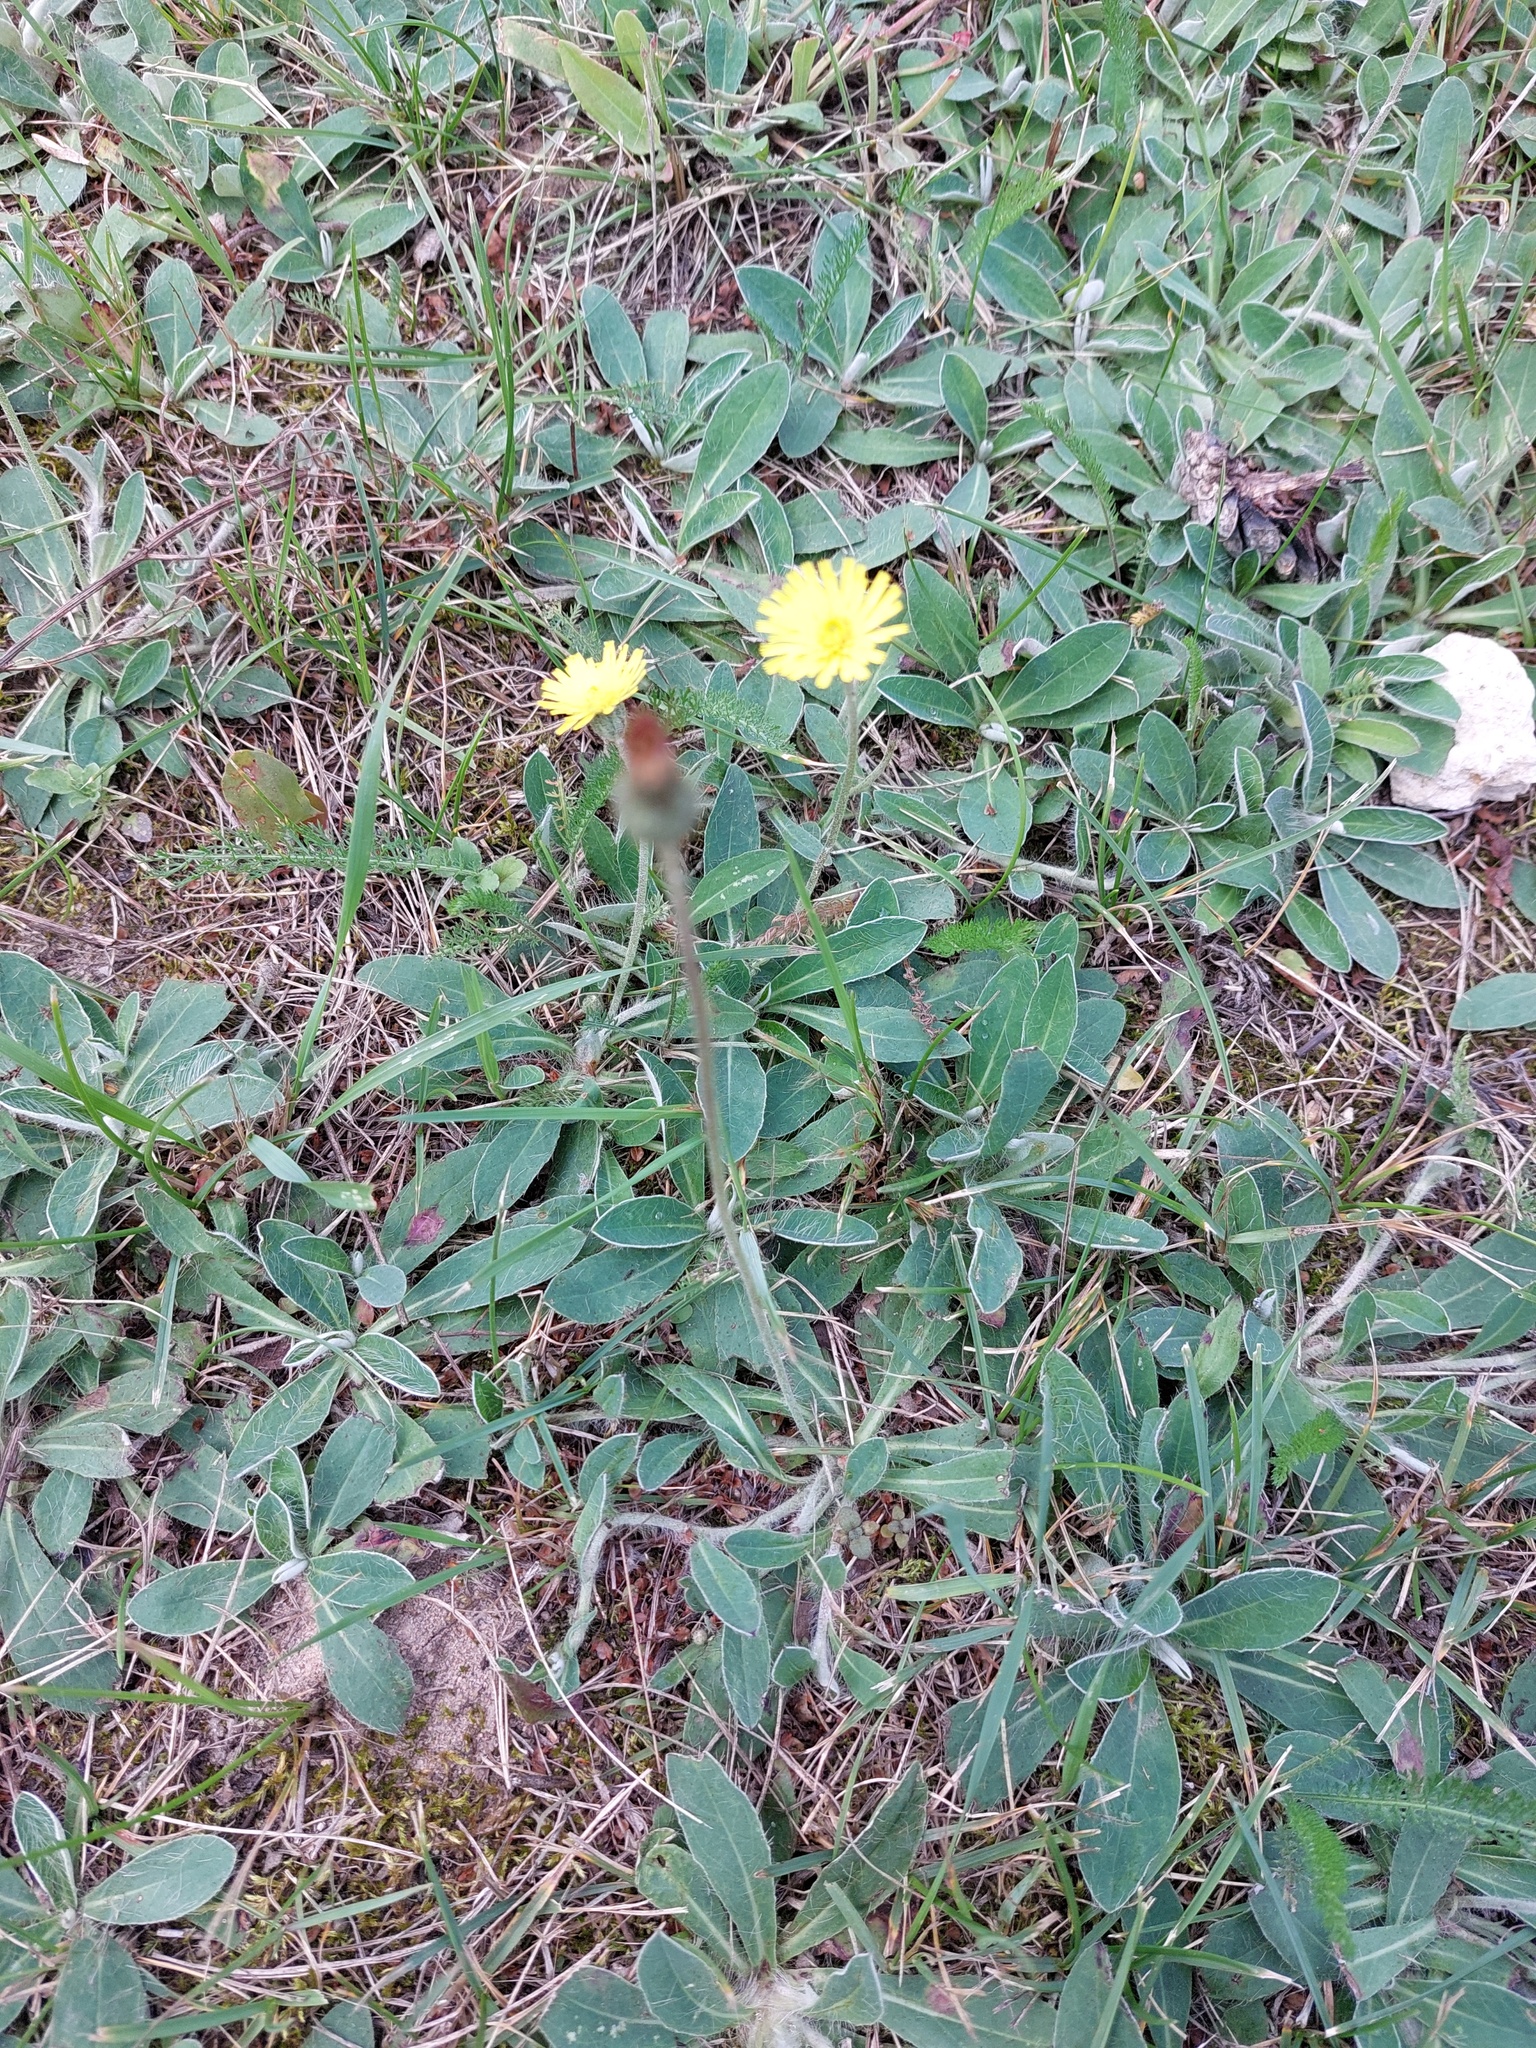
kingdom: Plantae
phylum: Tracheophyta
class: Magnoliopsida
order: Asterales
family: Asteraceae
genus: Pilosella
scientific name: Pilosella officinarum
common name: Mouse-ear hawkweed
